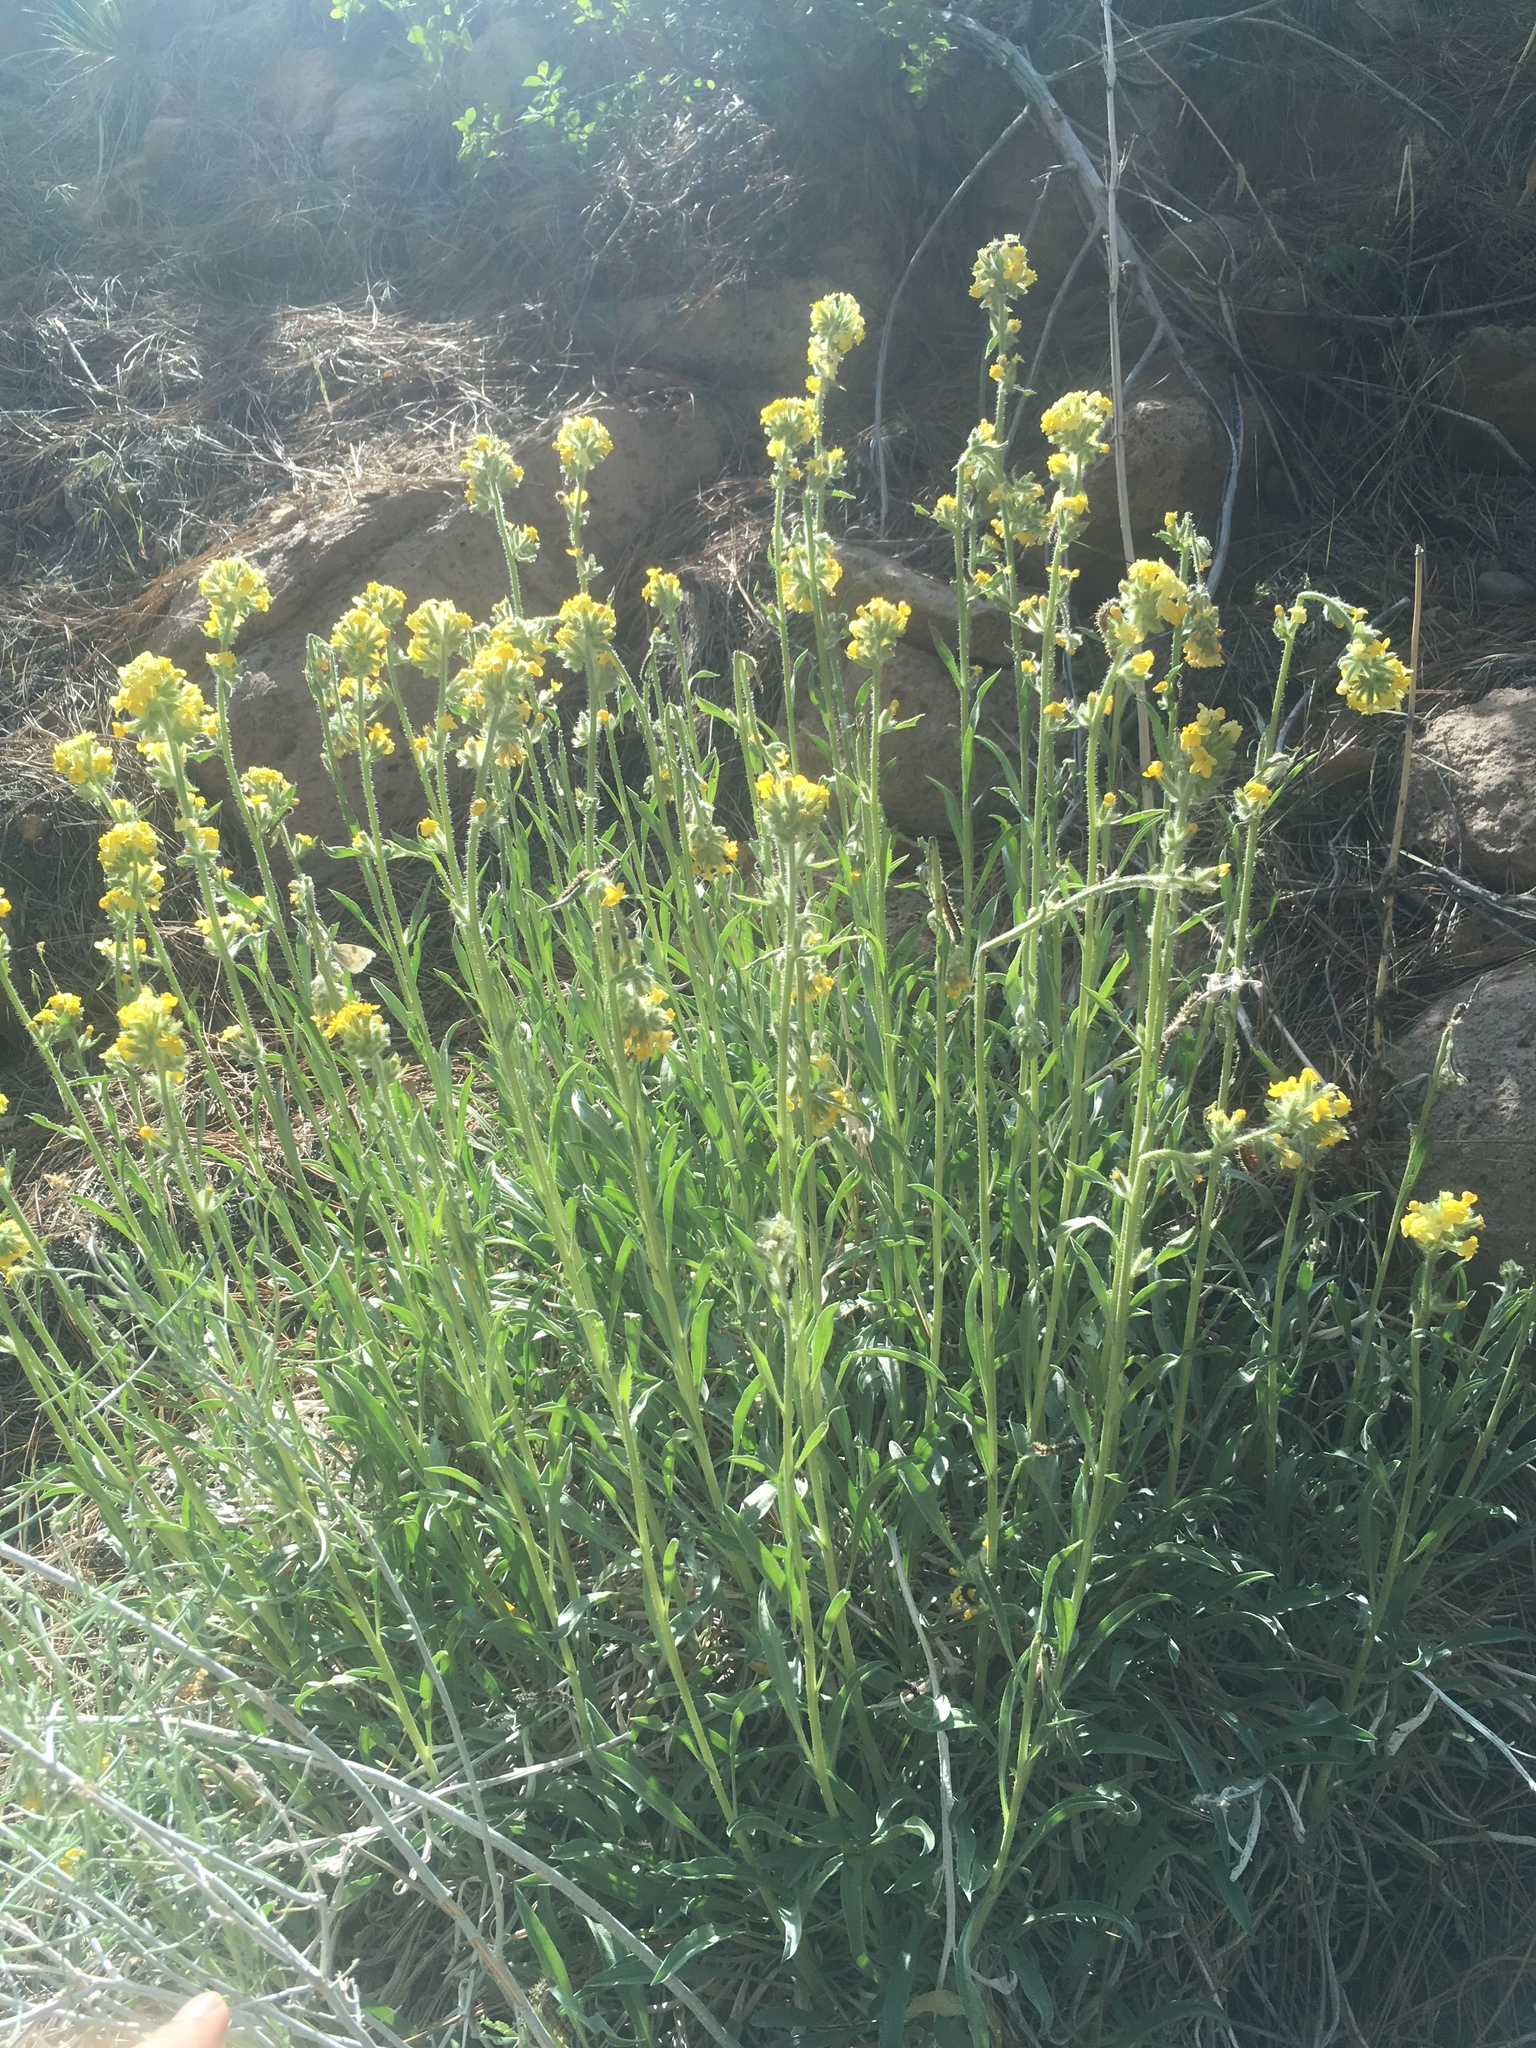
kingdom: Plantae
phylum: Tracheophyta
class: Magnoliopsida
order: Boraginales
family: Boraginaceae
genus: Oreocarya
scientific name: Oreocarya confertiflora
